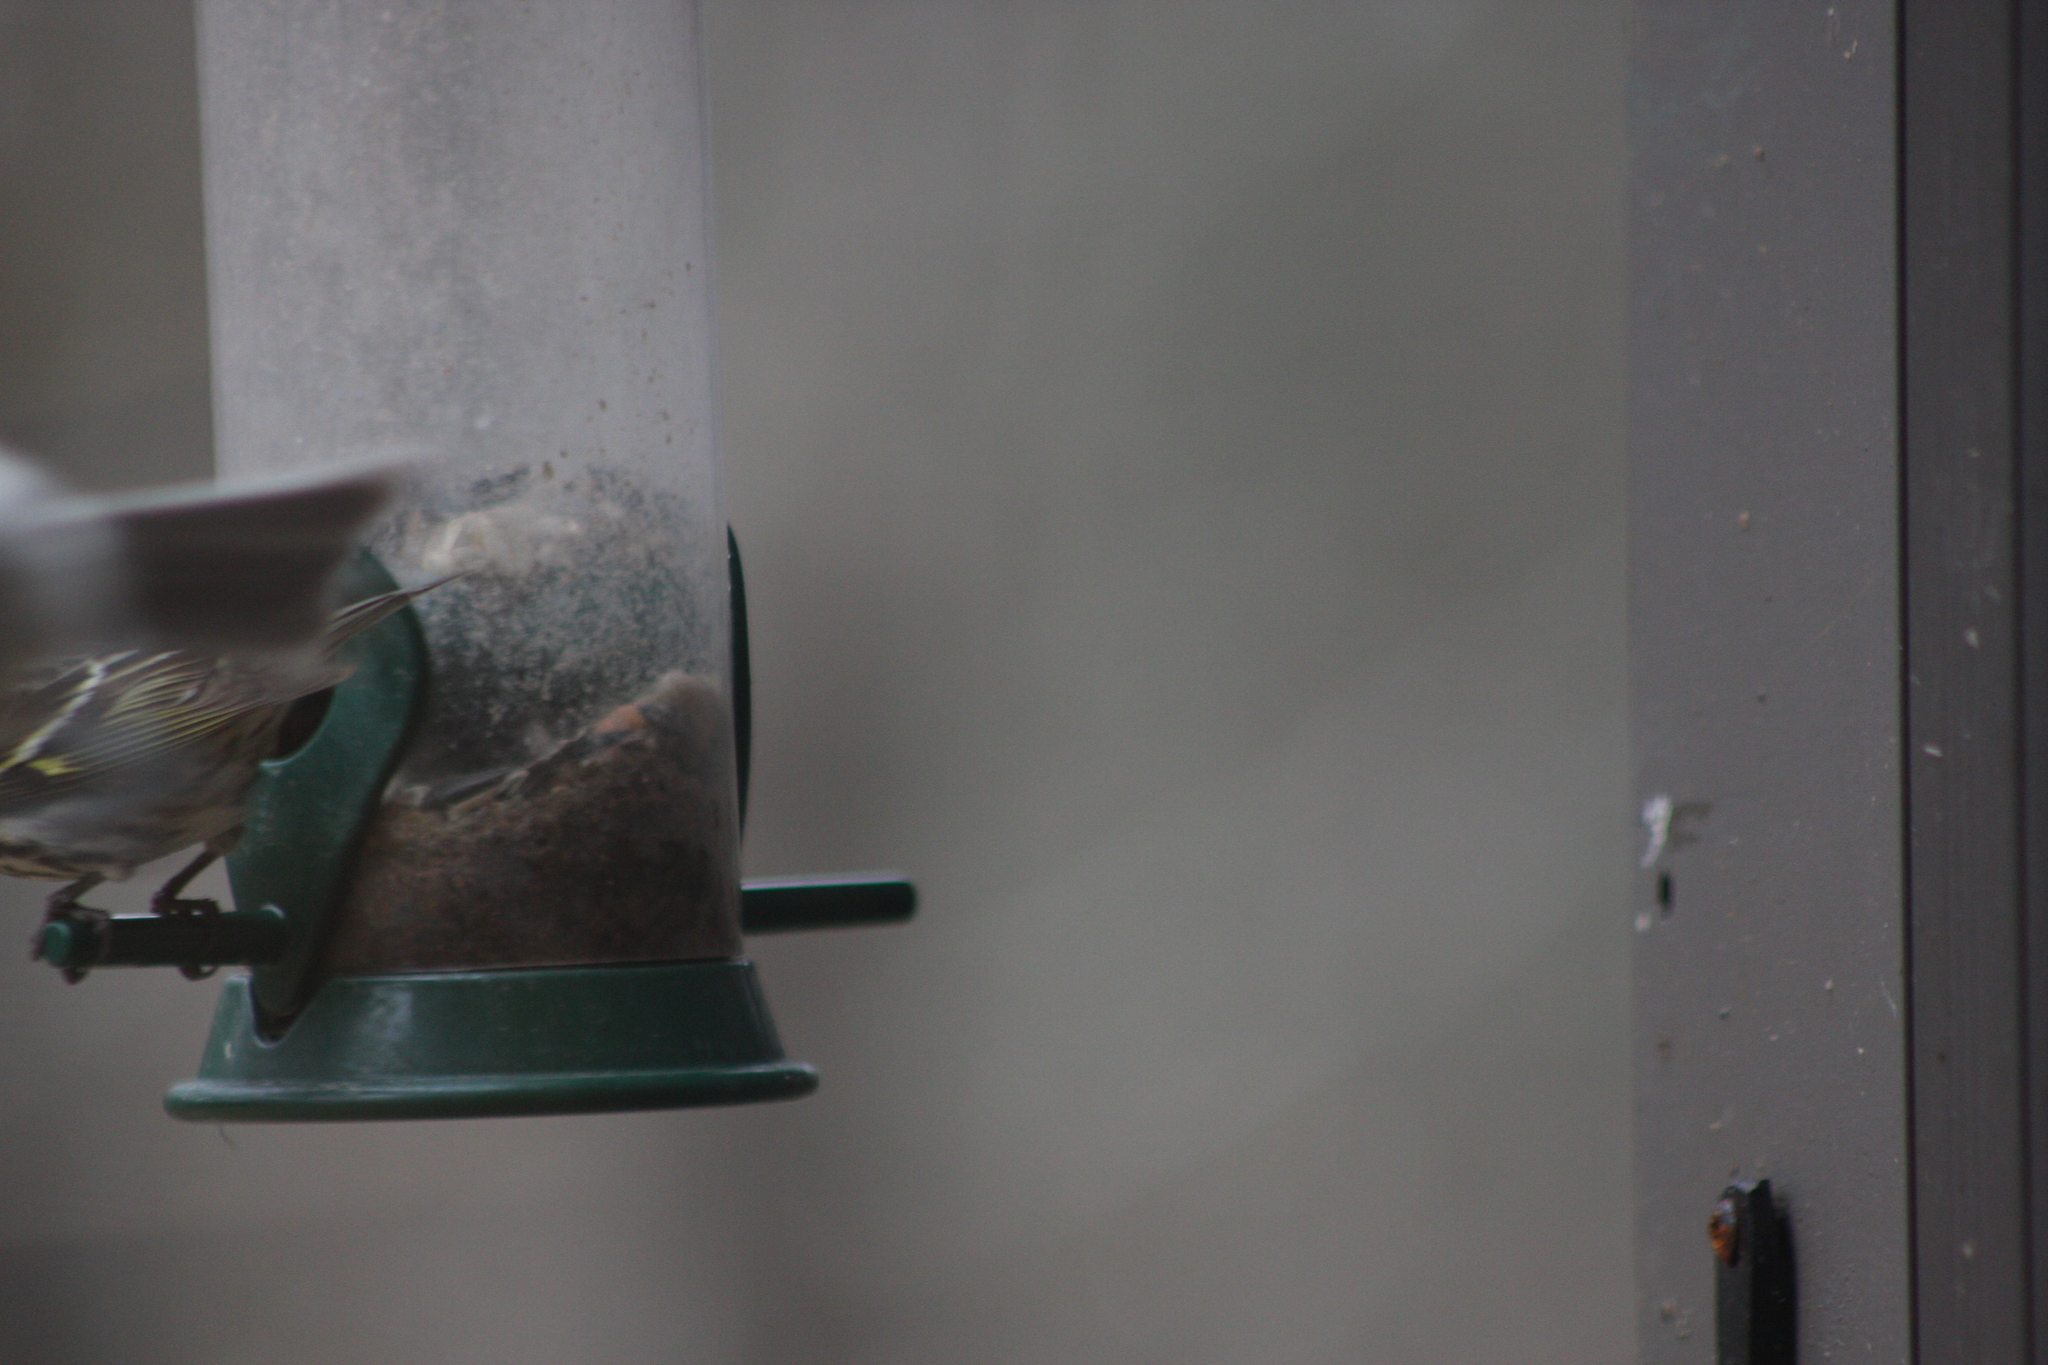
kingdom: Animalia
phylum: Chordata
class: Aves
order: Passeriformes
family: Fringillidae
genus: Spinus
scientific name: Spinus pinus
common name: Pine siskin
